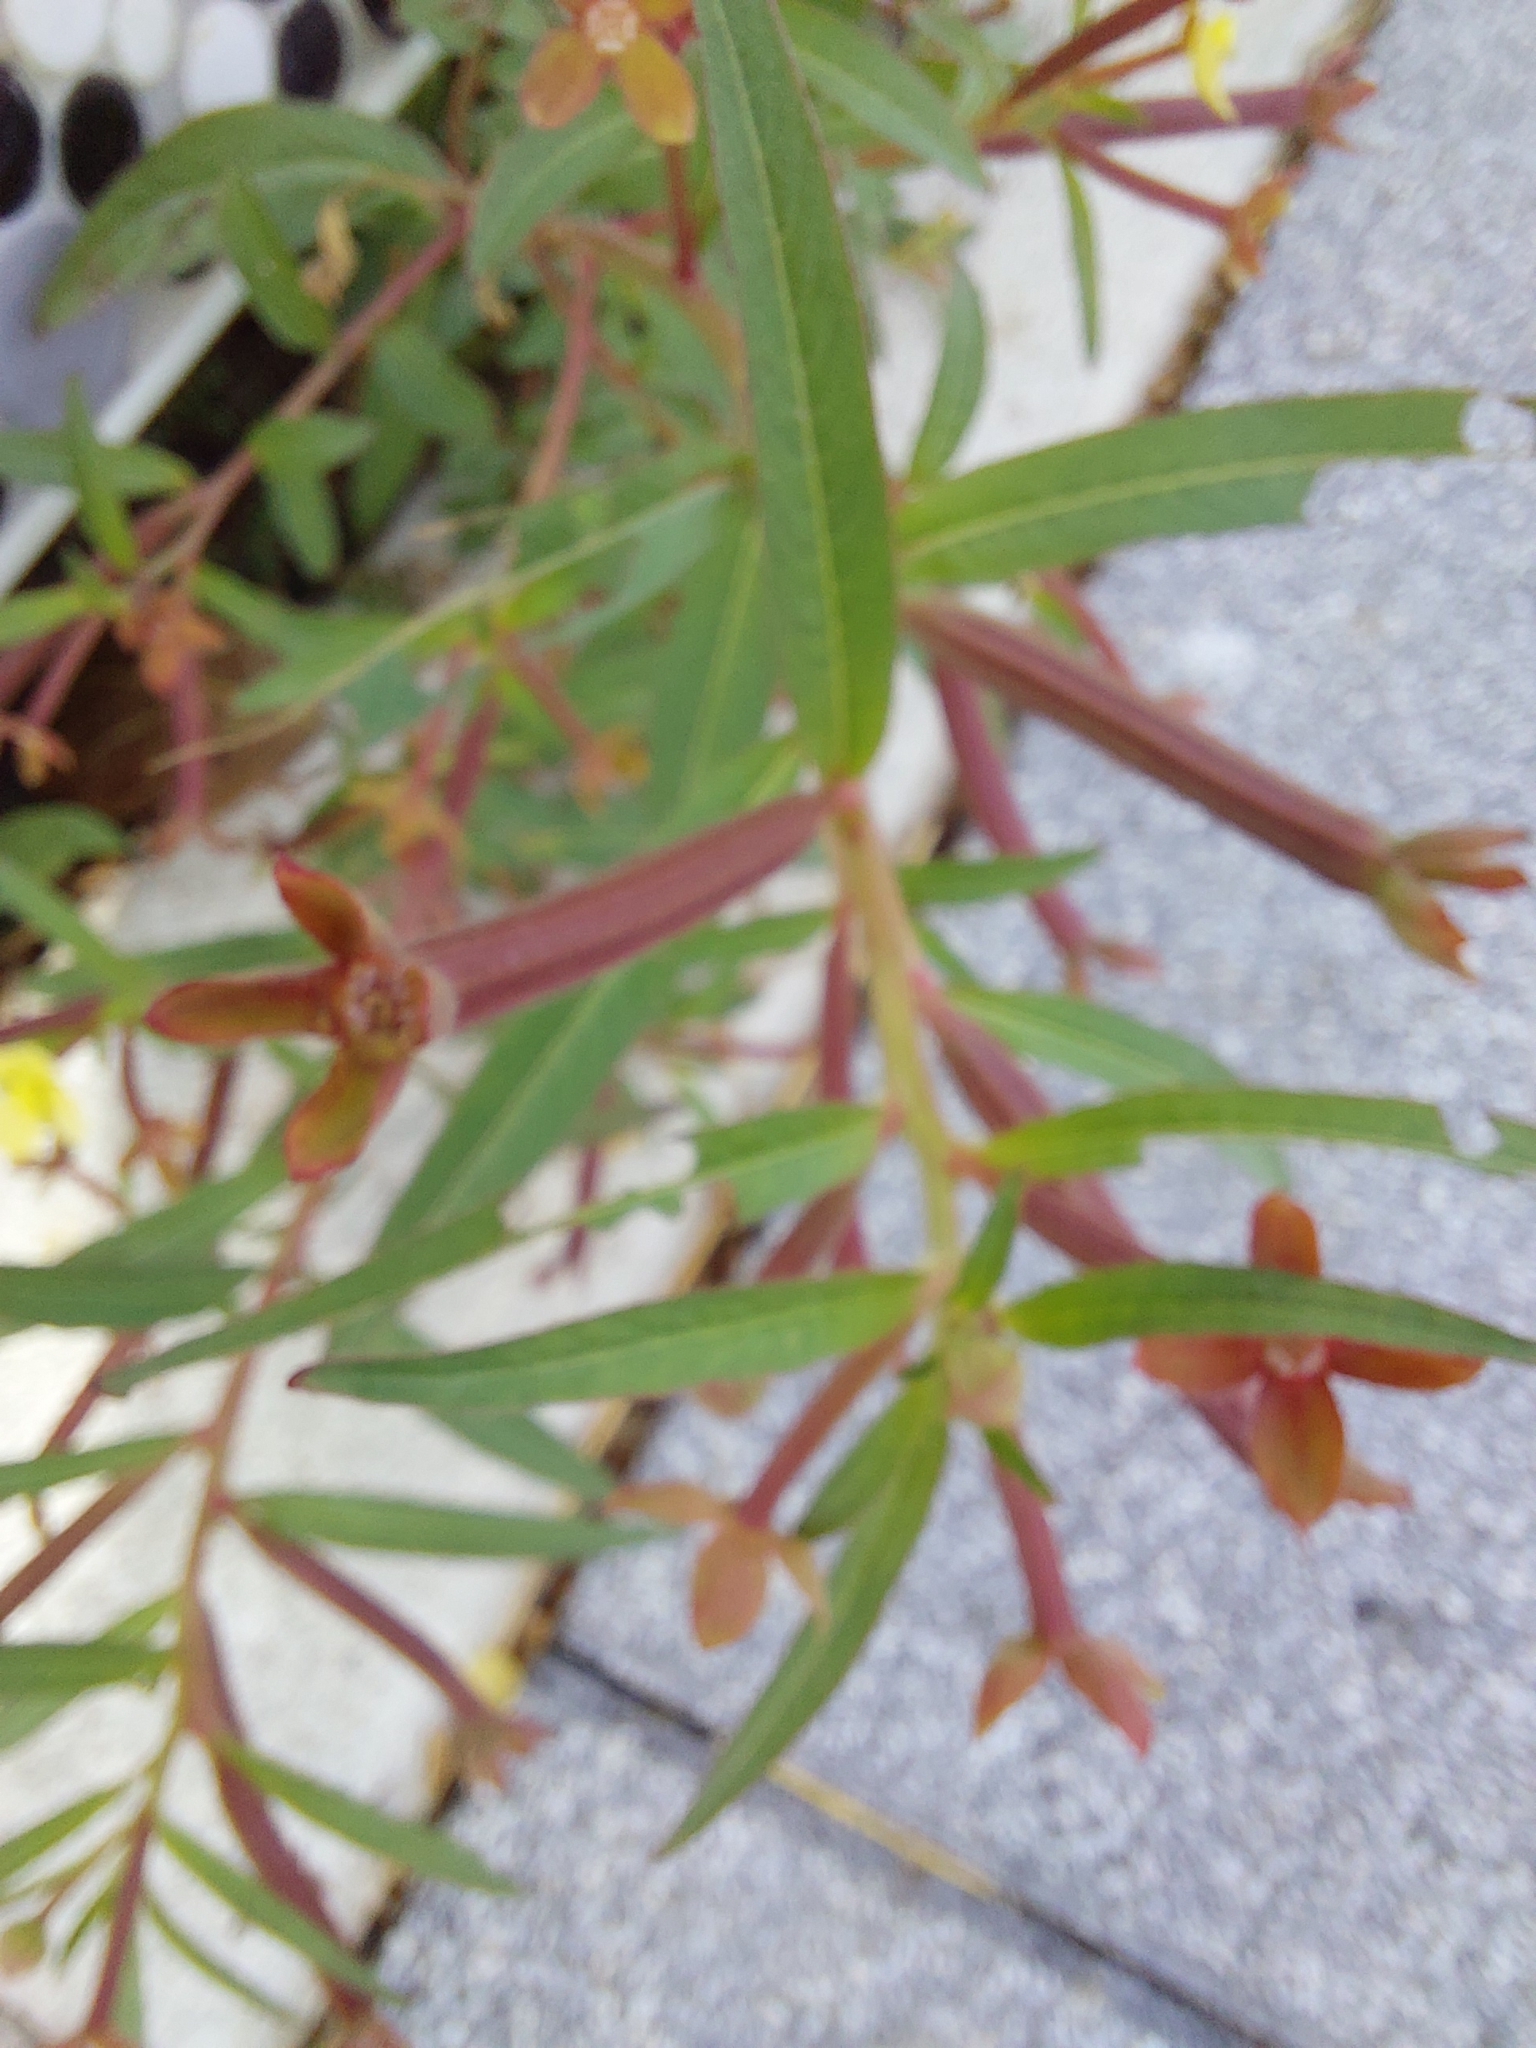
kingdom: Plantae
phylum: Tracheophyta
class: Magnoliopsida
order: Myrtales
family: Onagraceae
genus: Ludwigia
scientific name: Ludwigia octovalvis
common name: Water-primrose
